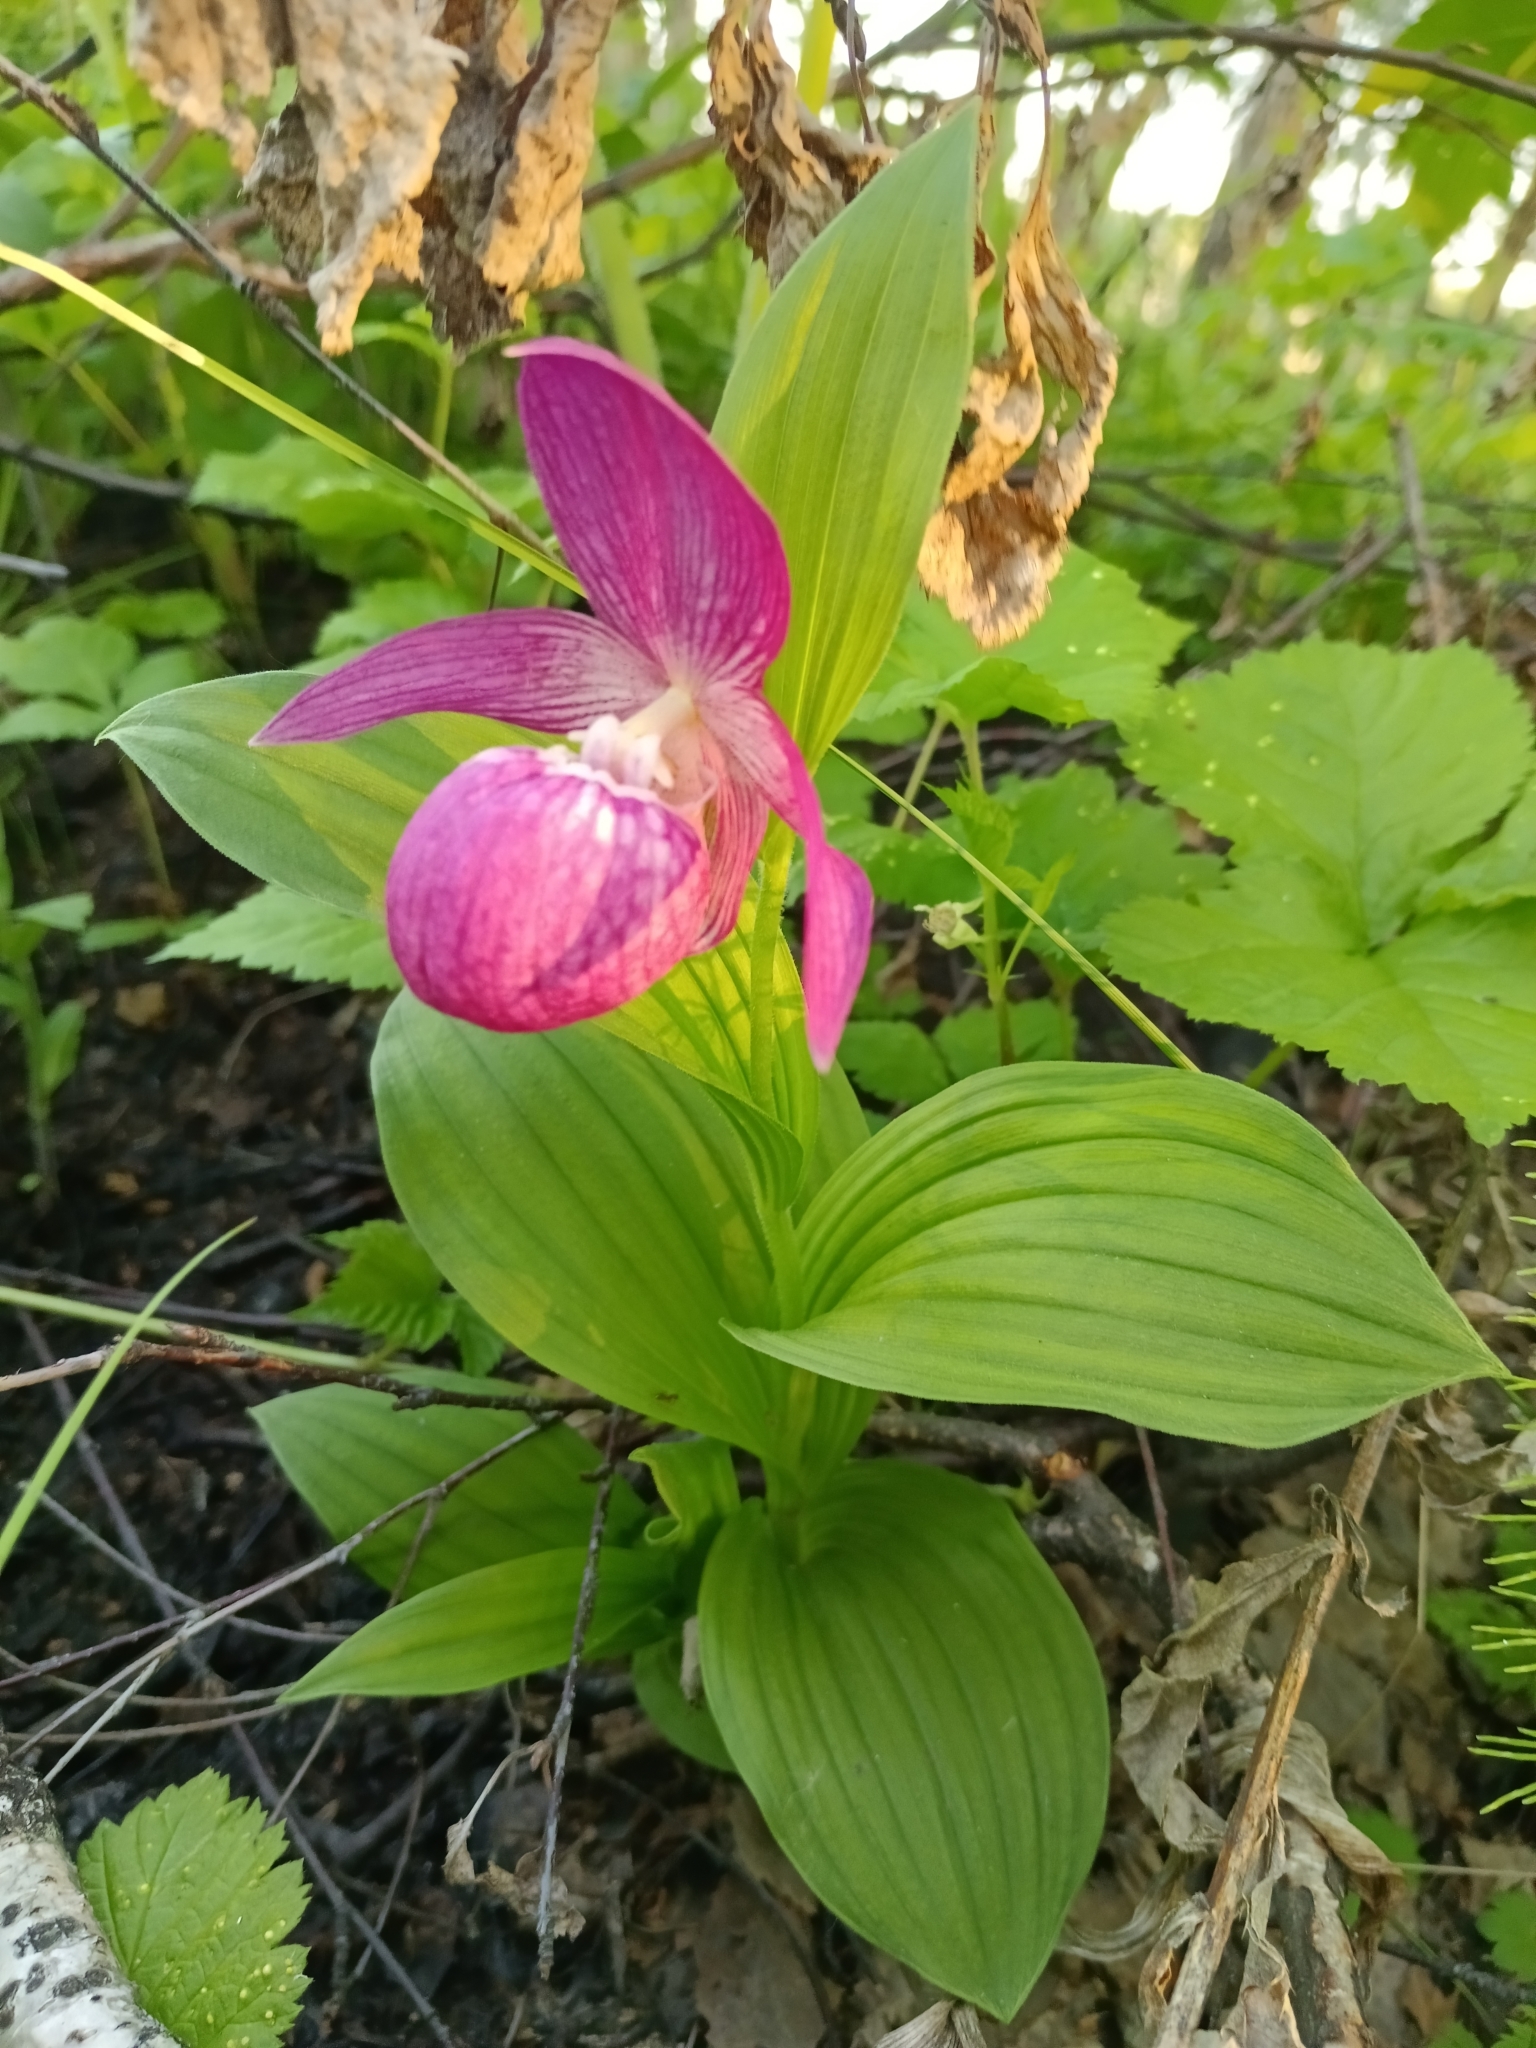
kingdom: Plantae
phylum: Tracheophyta
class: Liliopsida
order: Asparagales
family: Orchidaceae
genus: Cypripedium
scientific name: Cypripedium macranthos
